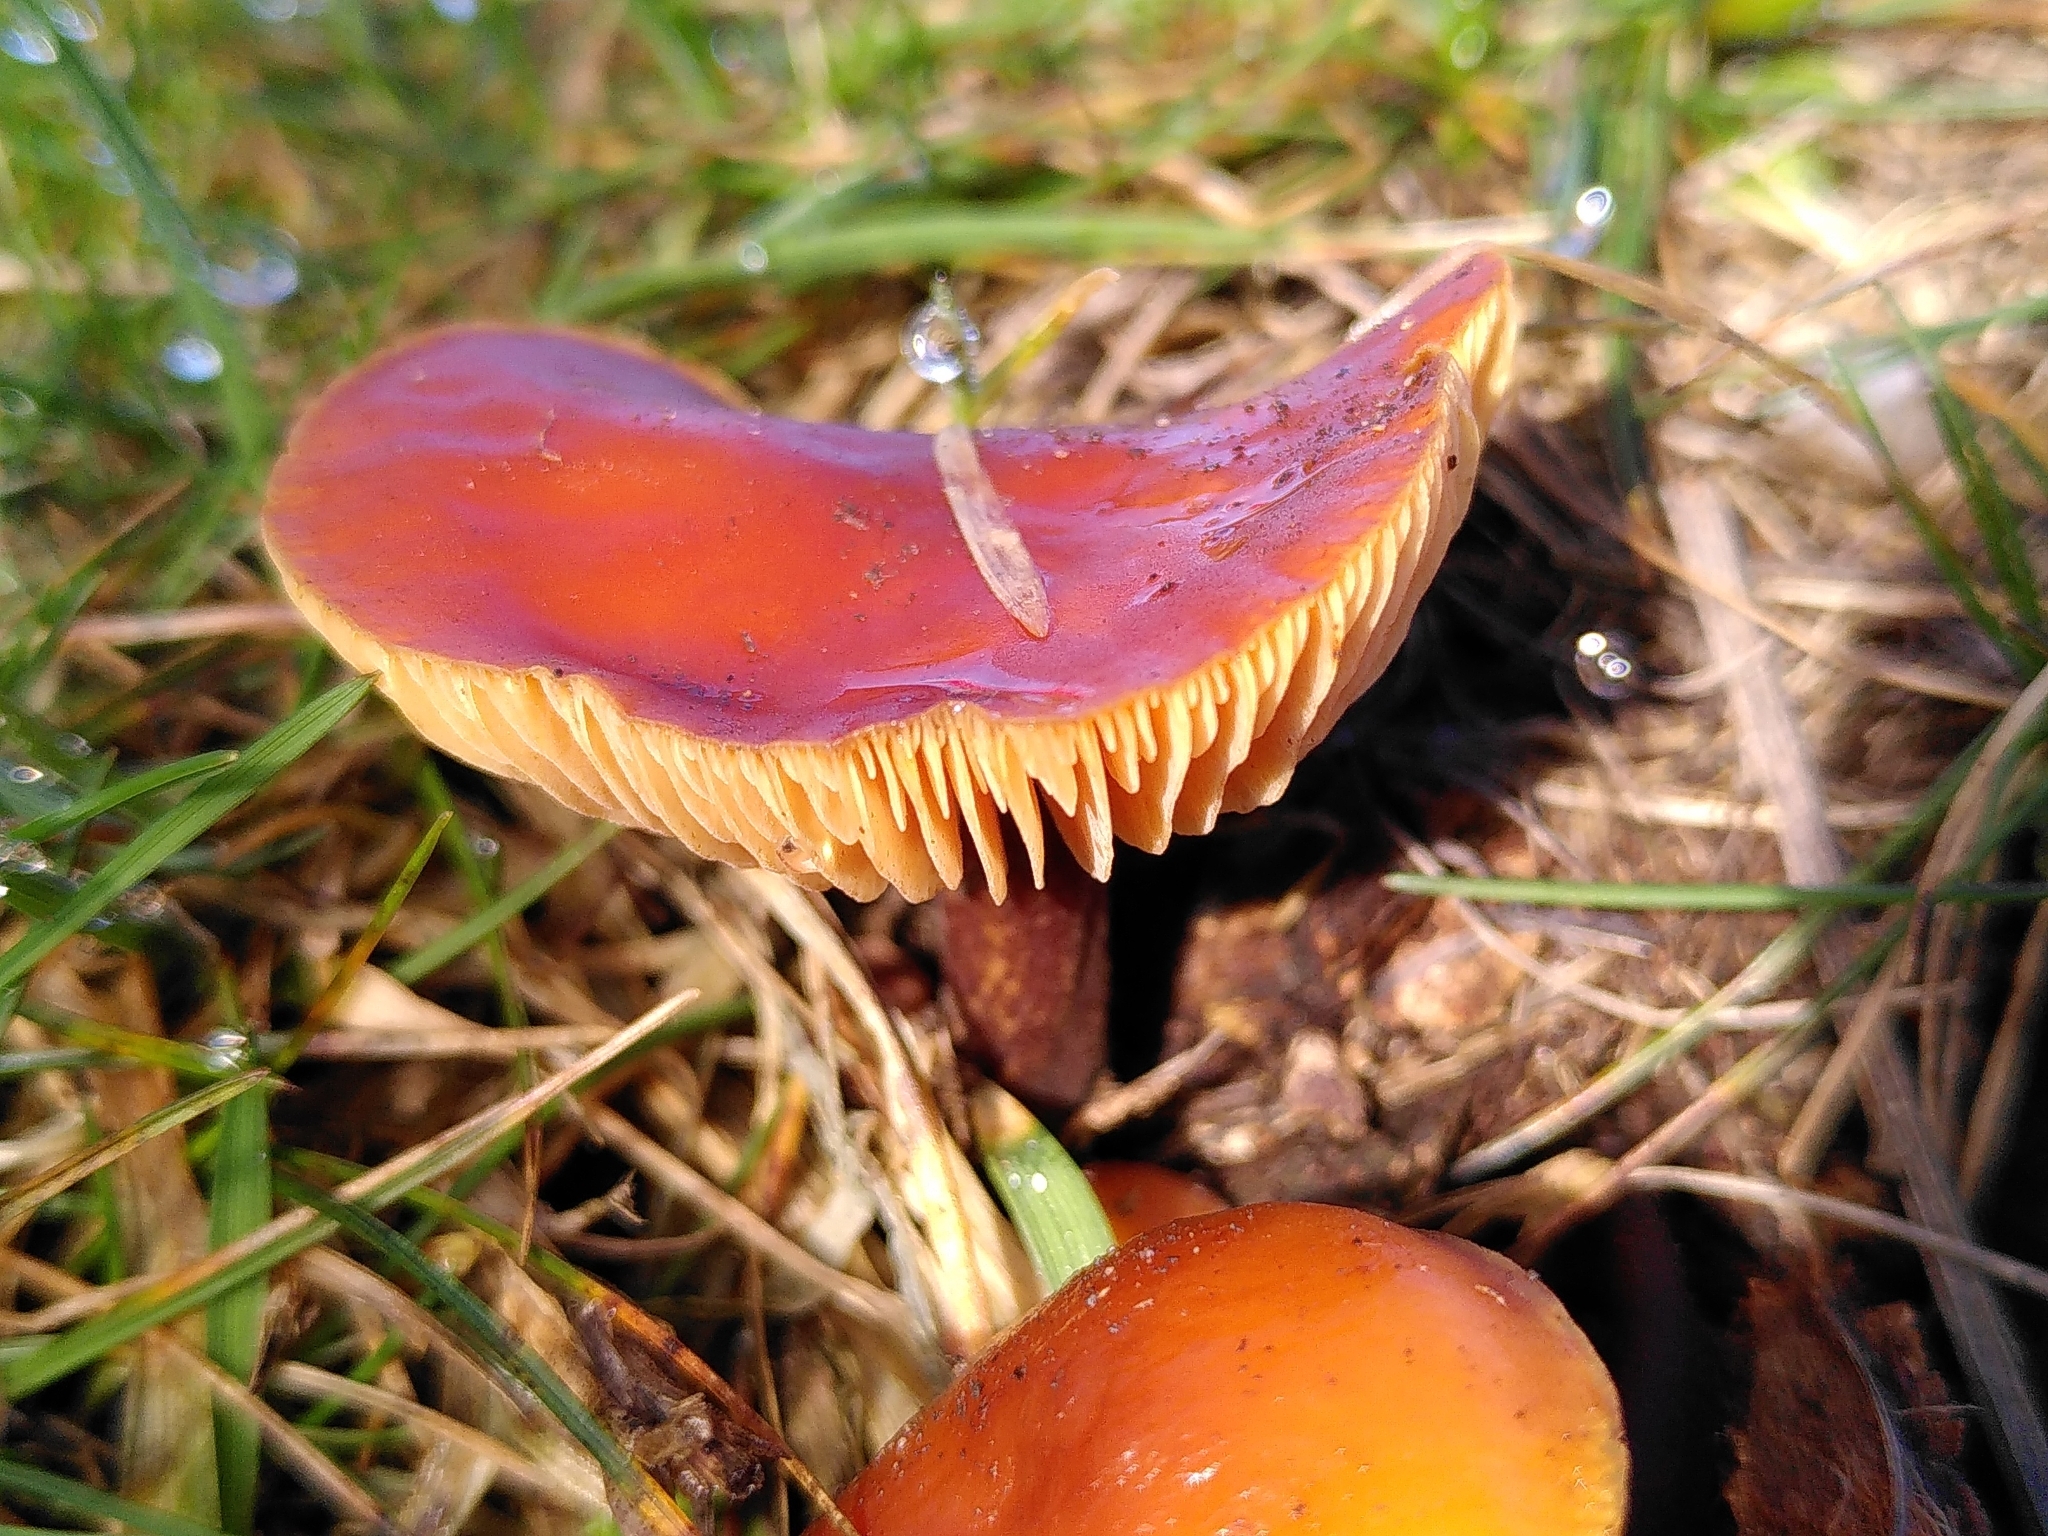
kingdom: Fungi
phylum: Basidiomycota
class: Agaricomycetes
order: Agaricales
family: Physalacriaceae
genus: Flammulina
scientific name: Flammulina
